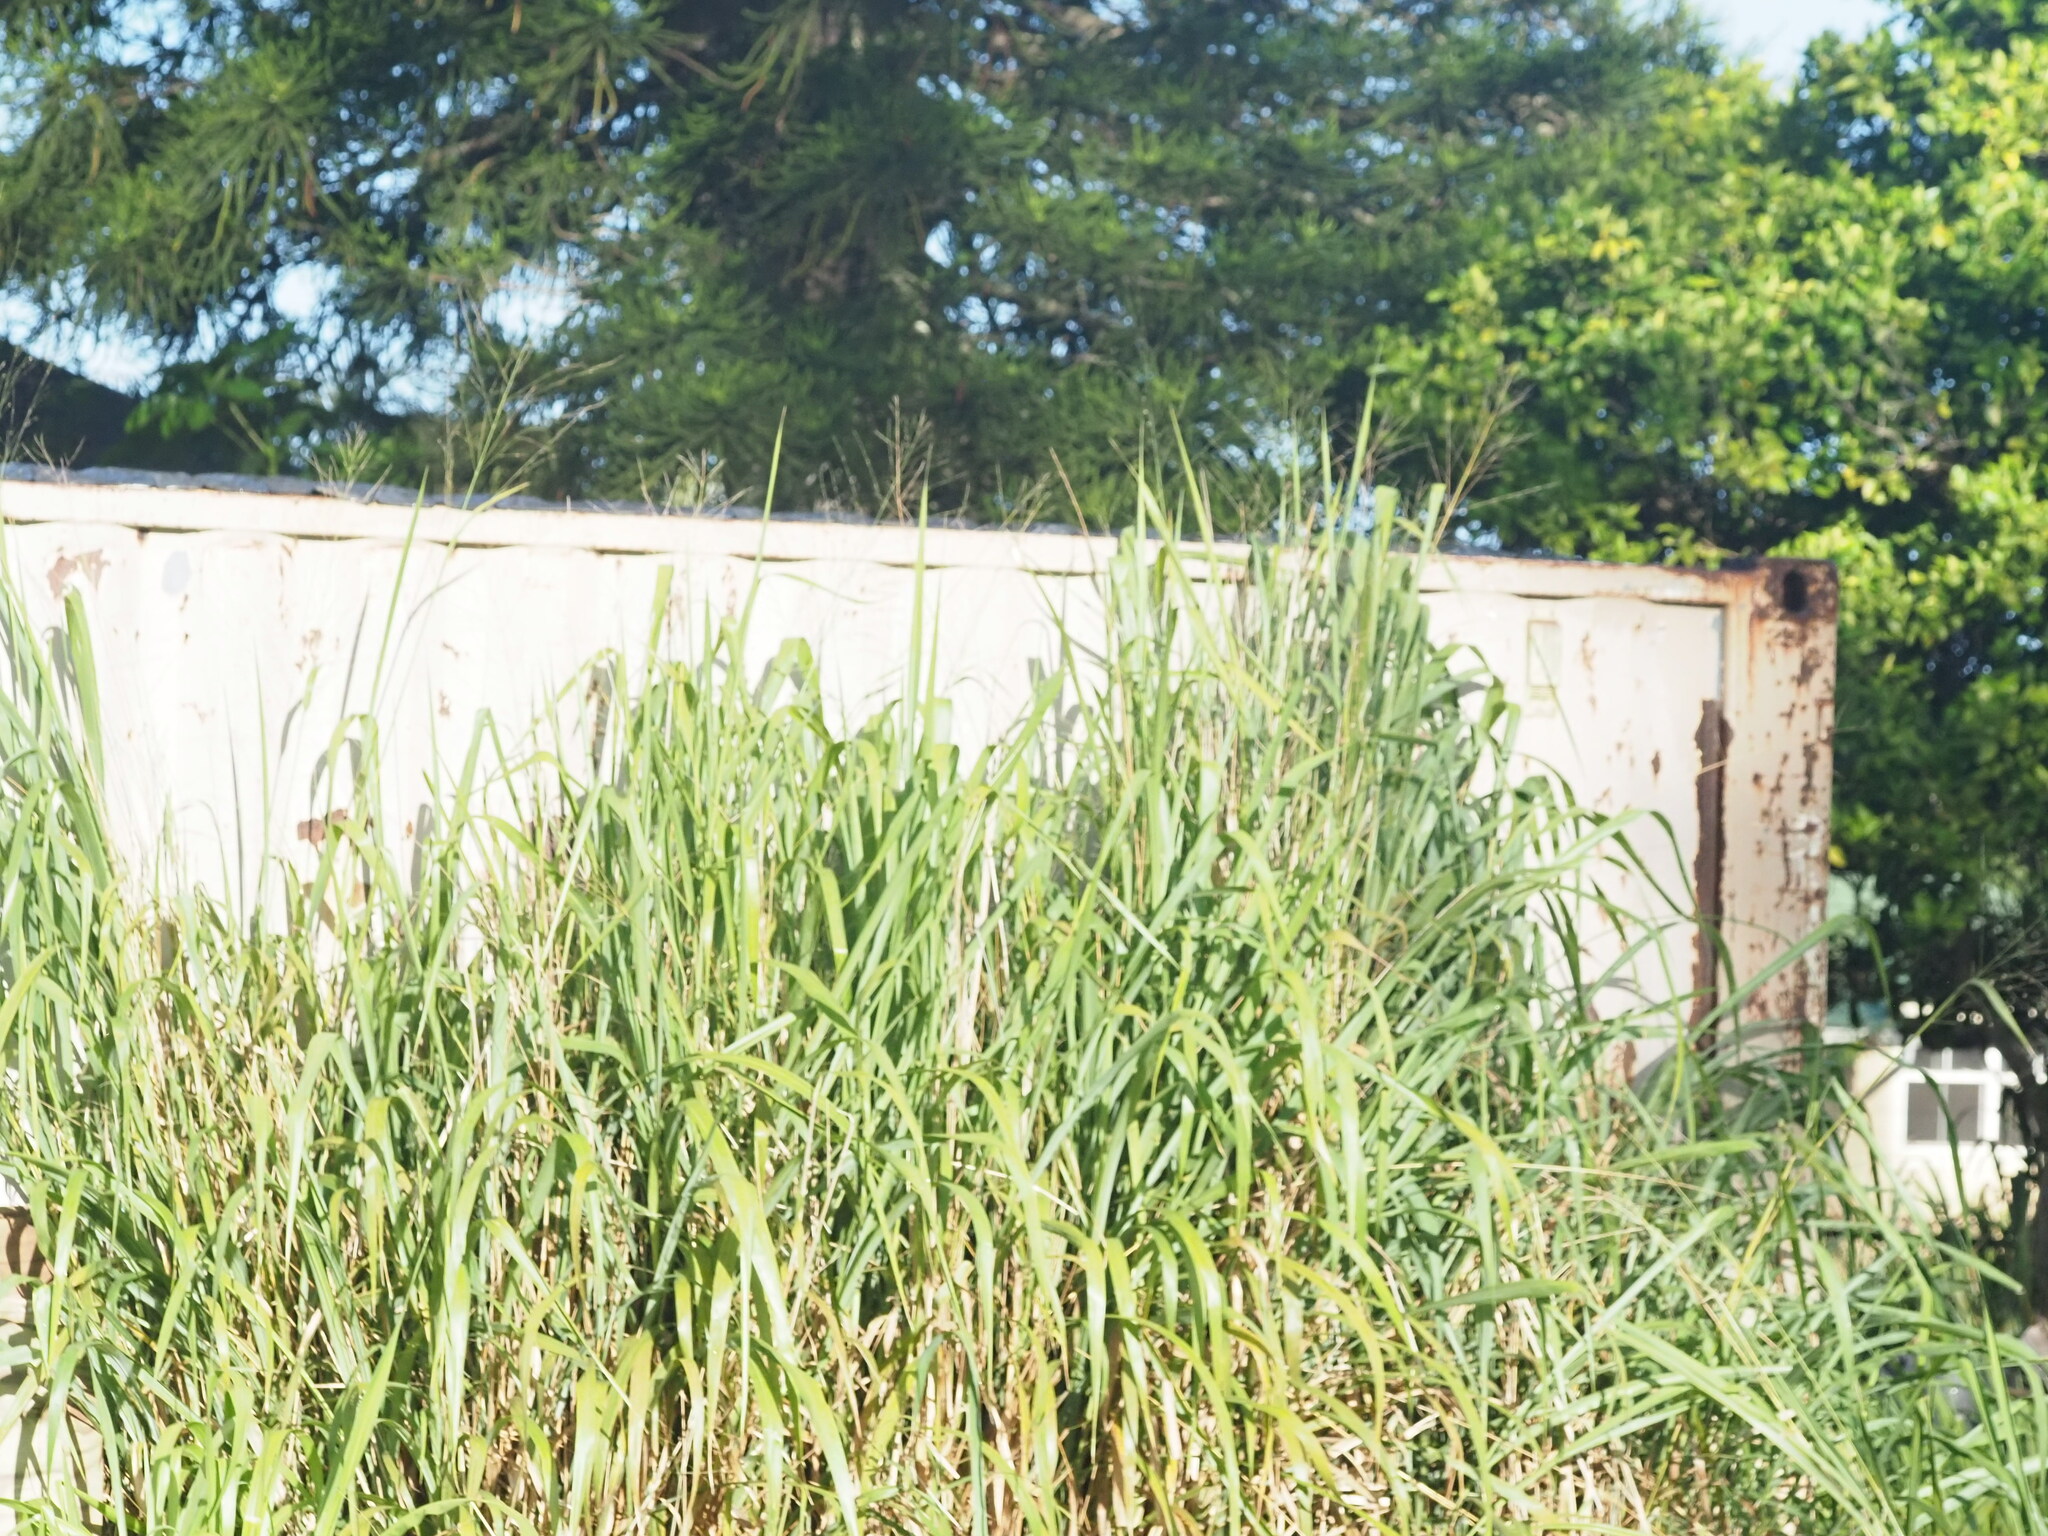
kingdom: Plantae
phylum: Tracheophyta
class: Liliopsida
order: Poales
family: Poaceae
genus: Megathyrsus
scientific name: Megathyrsus maximus
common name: Guineagrass
